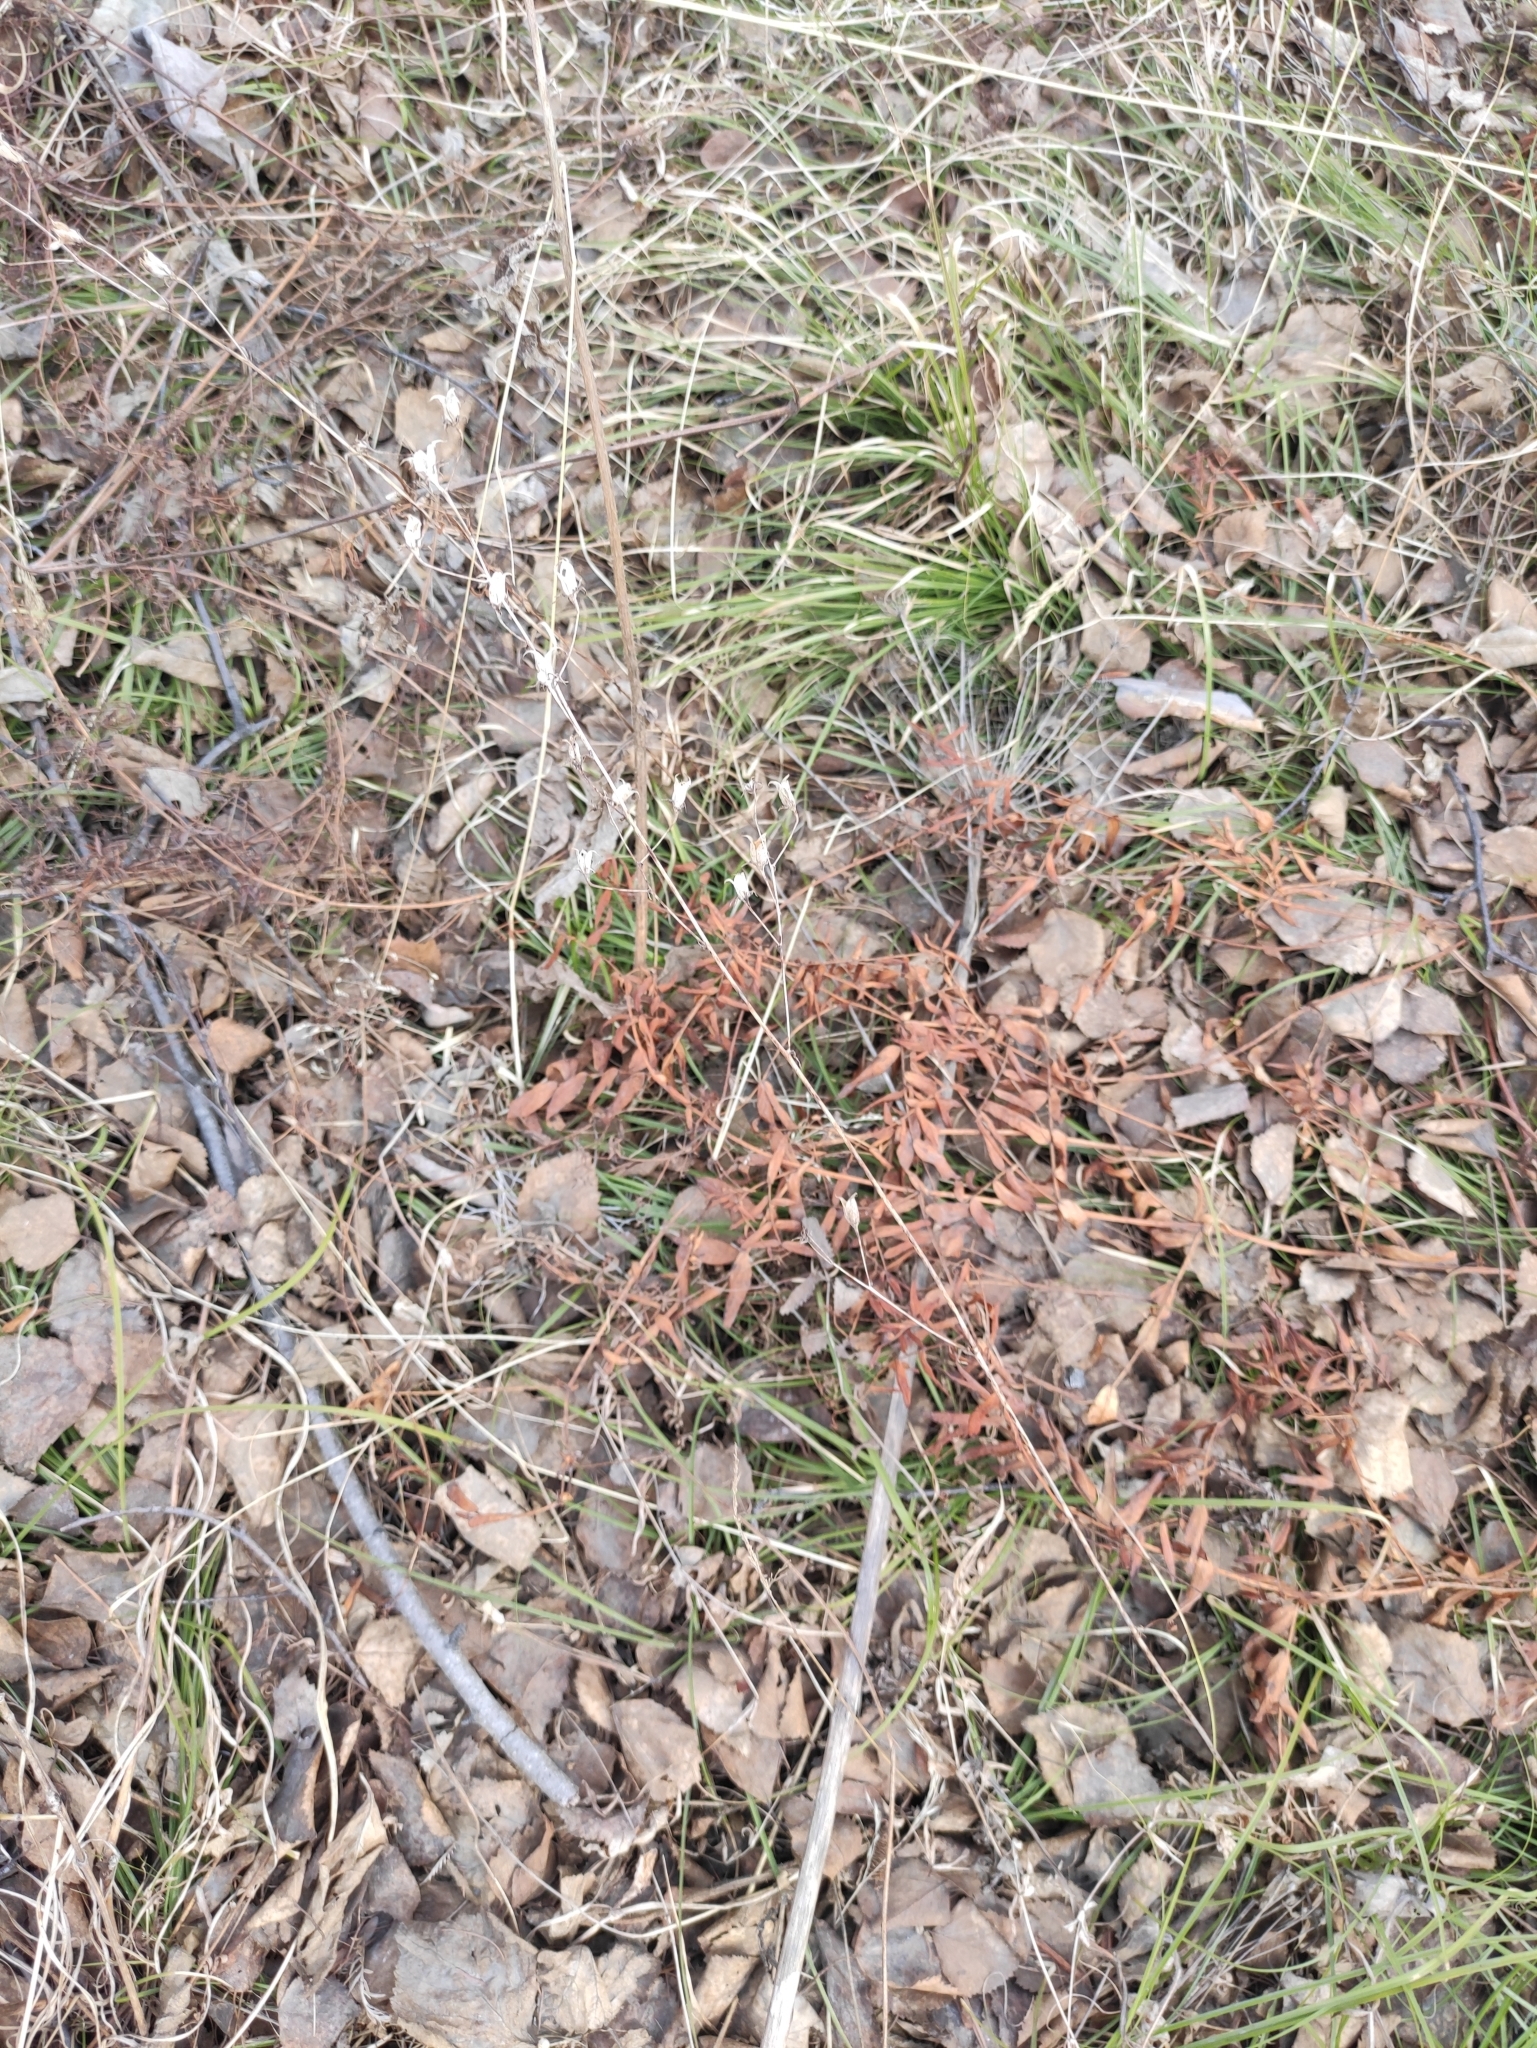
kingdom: Plantae
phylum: Tracheophyta
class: Liliopsida
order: Liliales
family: Melanthiaceae
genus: Anticlea
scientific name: Anticlea sibirica
